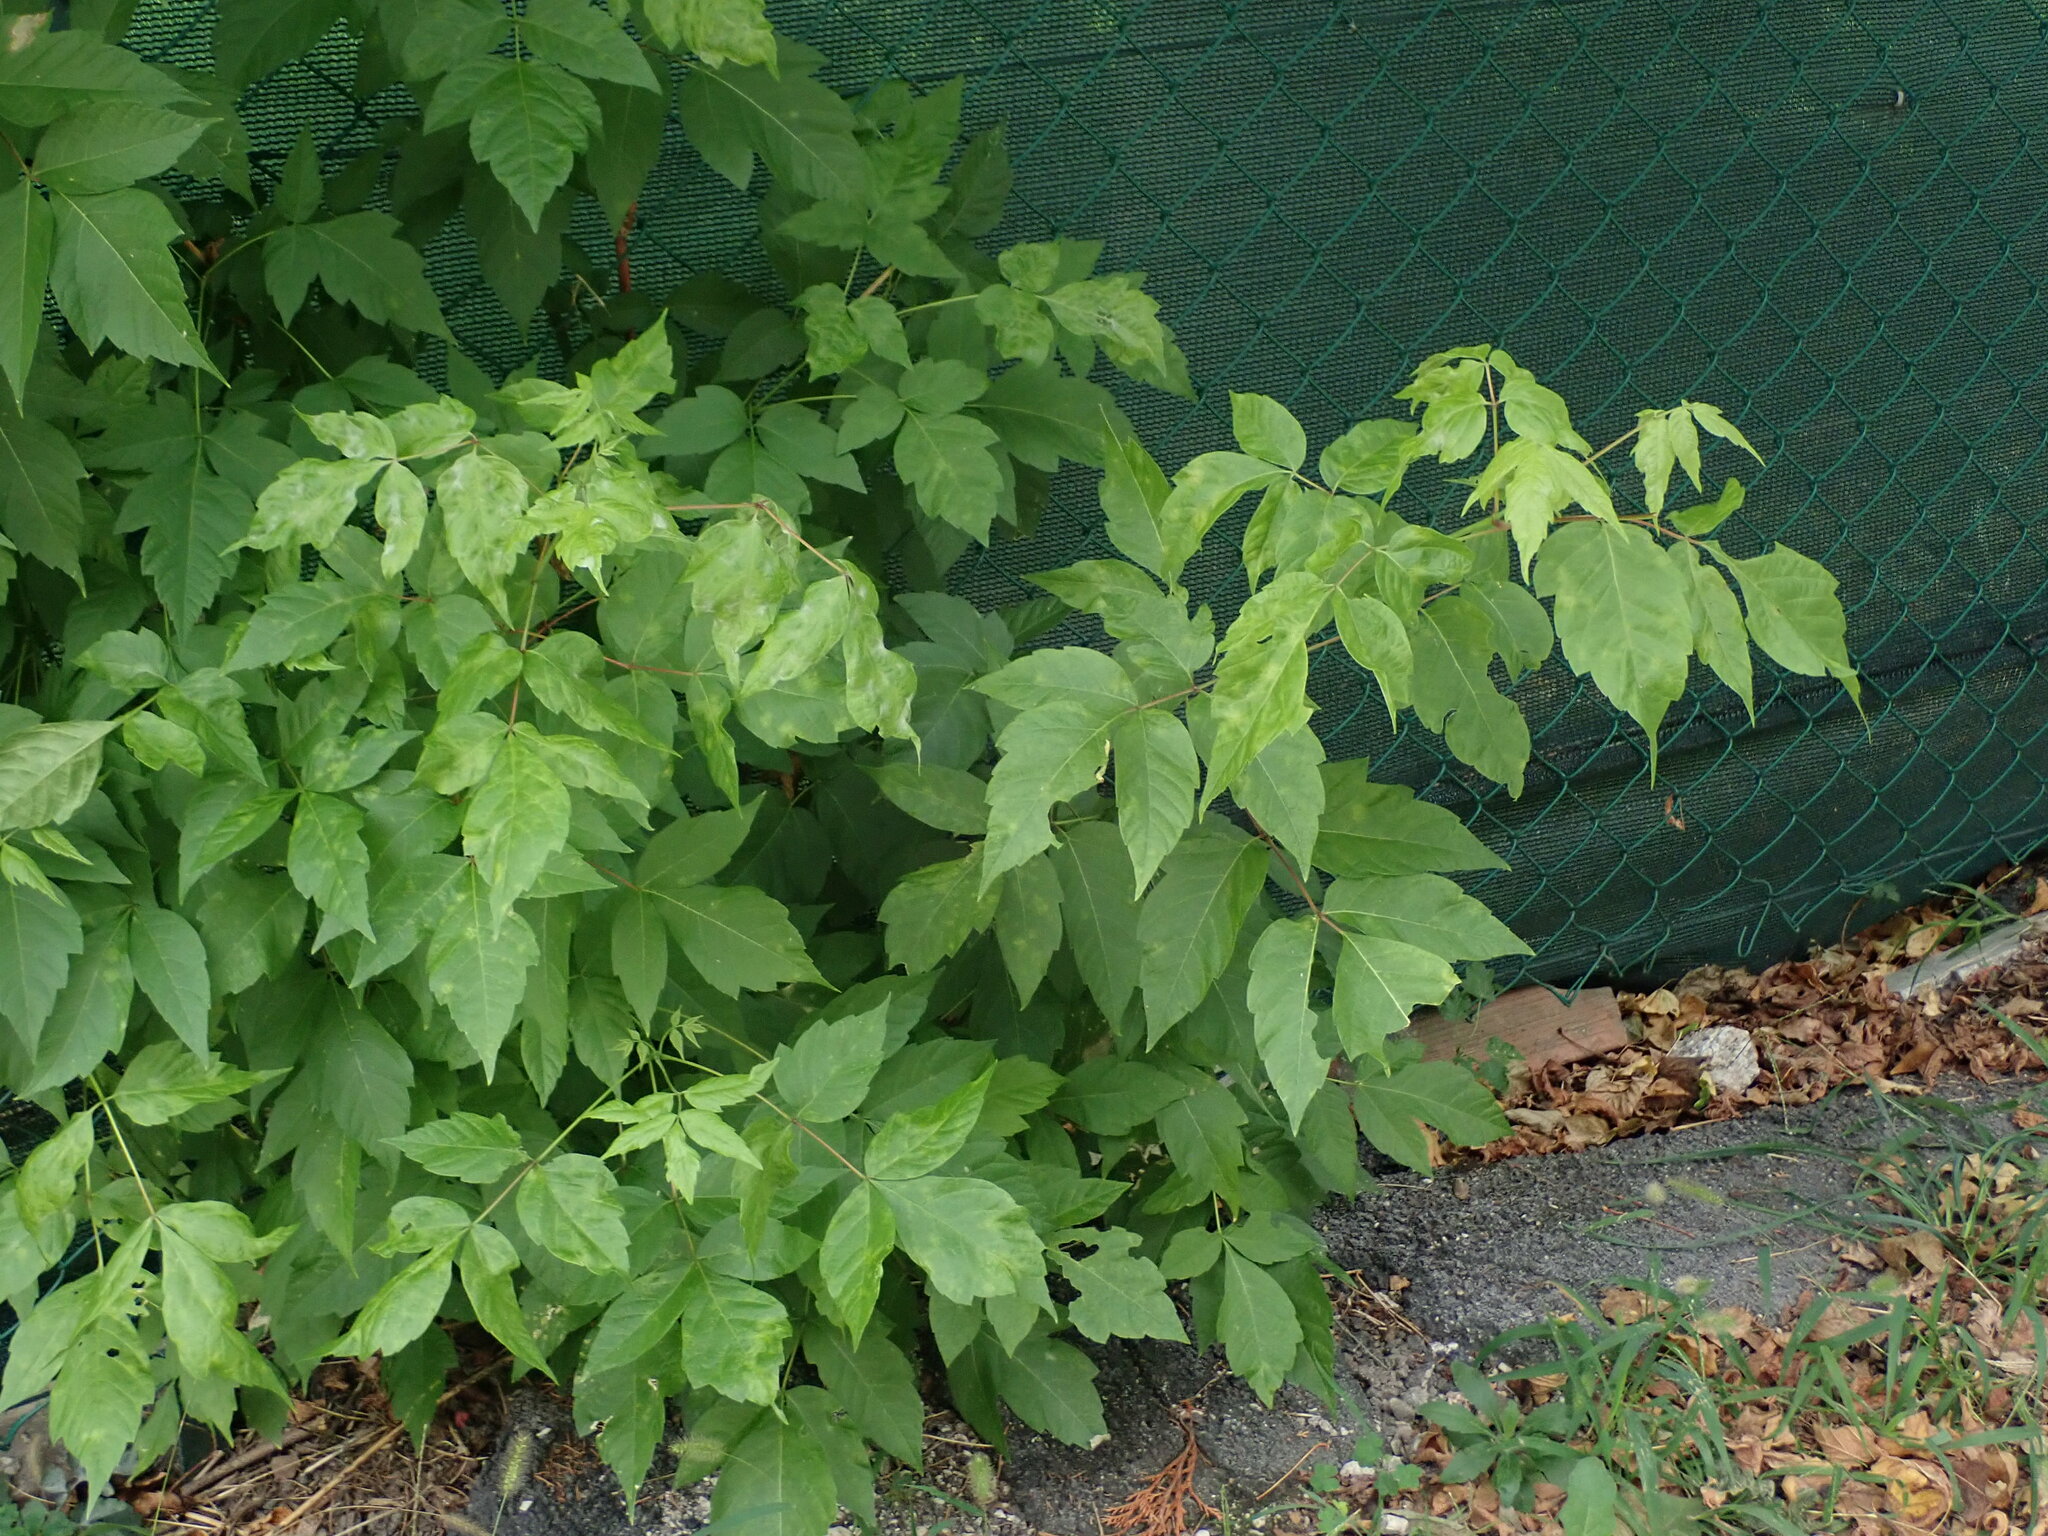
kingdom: Plantae
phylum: Tracheophyta
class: Magnoliopsida
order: Sapindales
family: Sapindaceae
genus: Acer
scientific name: Acer negundo
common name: Ashleaf maple
